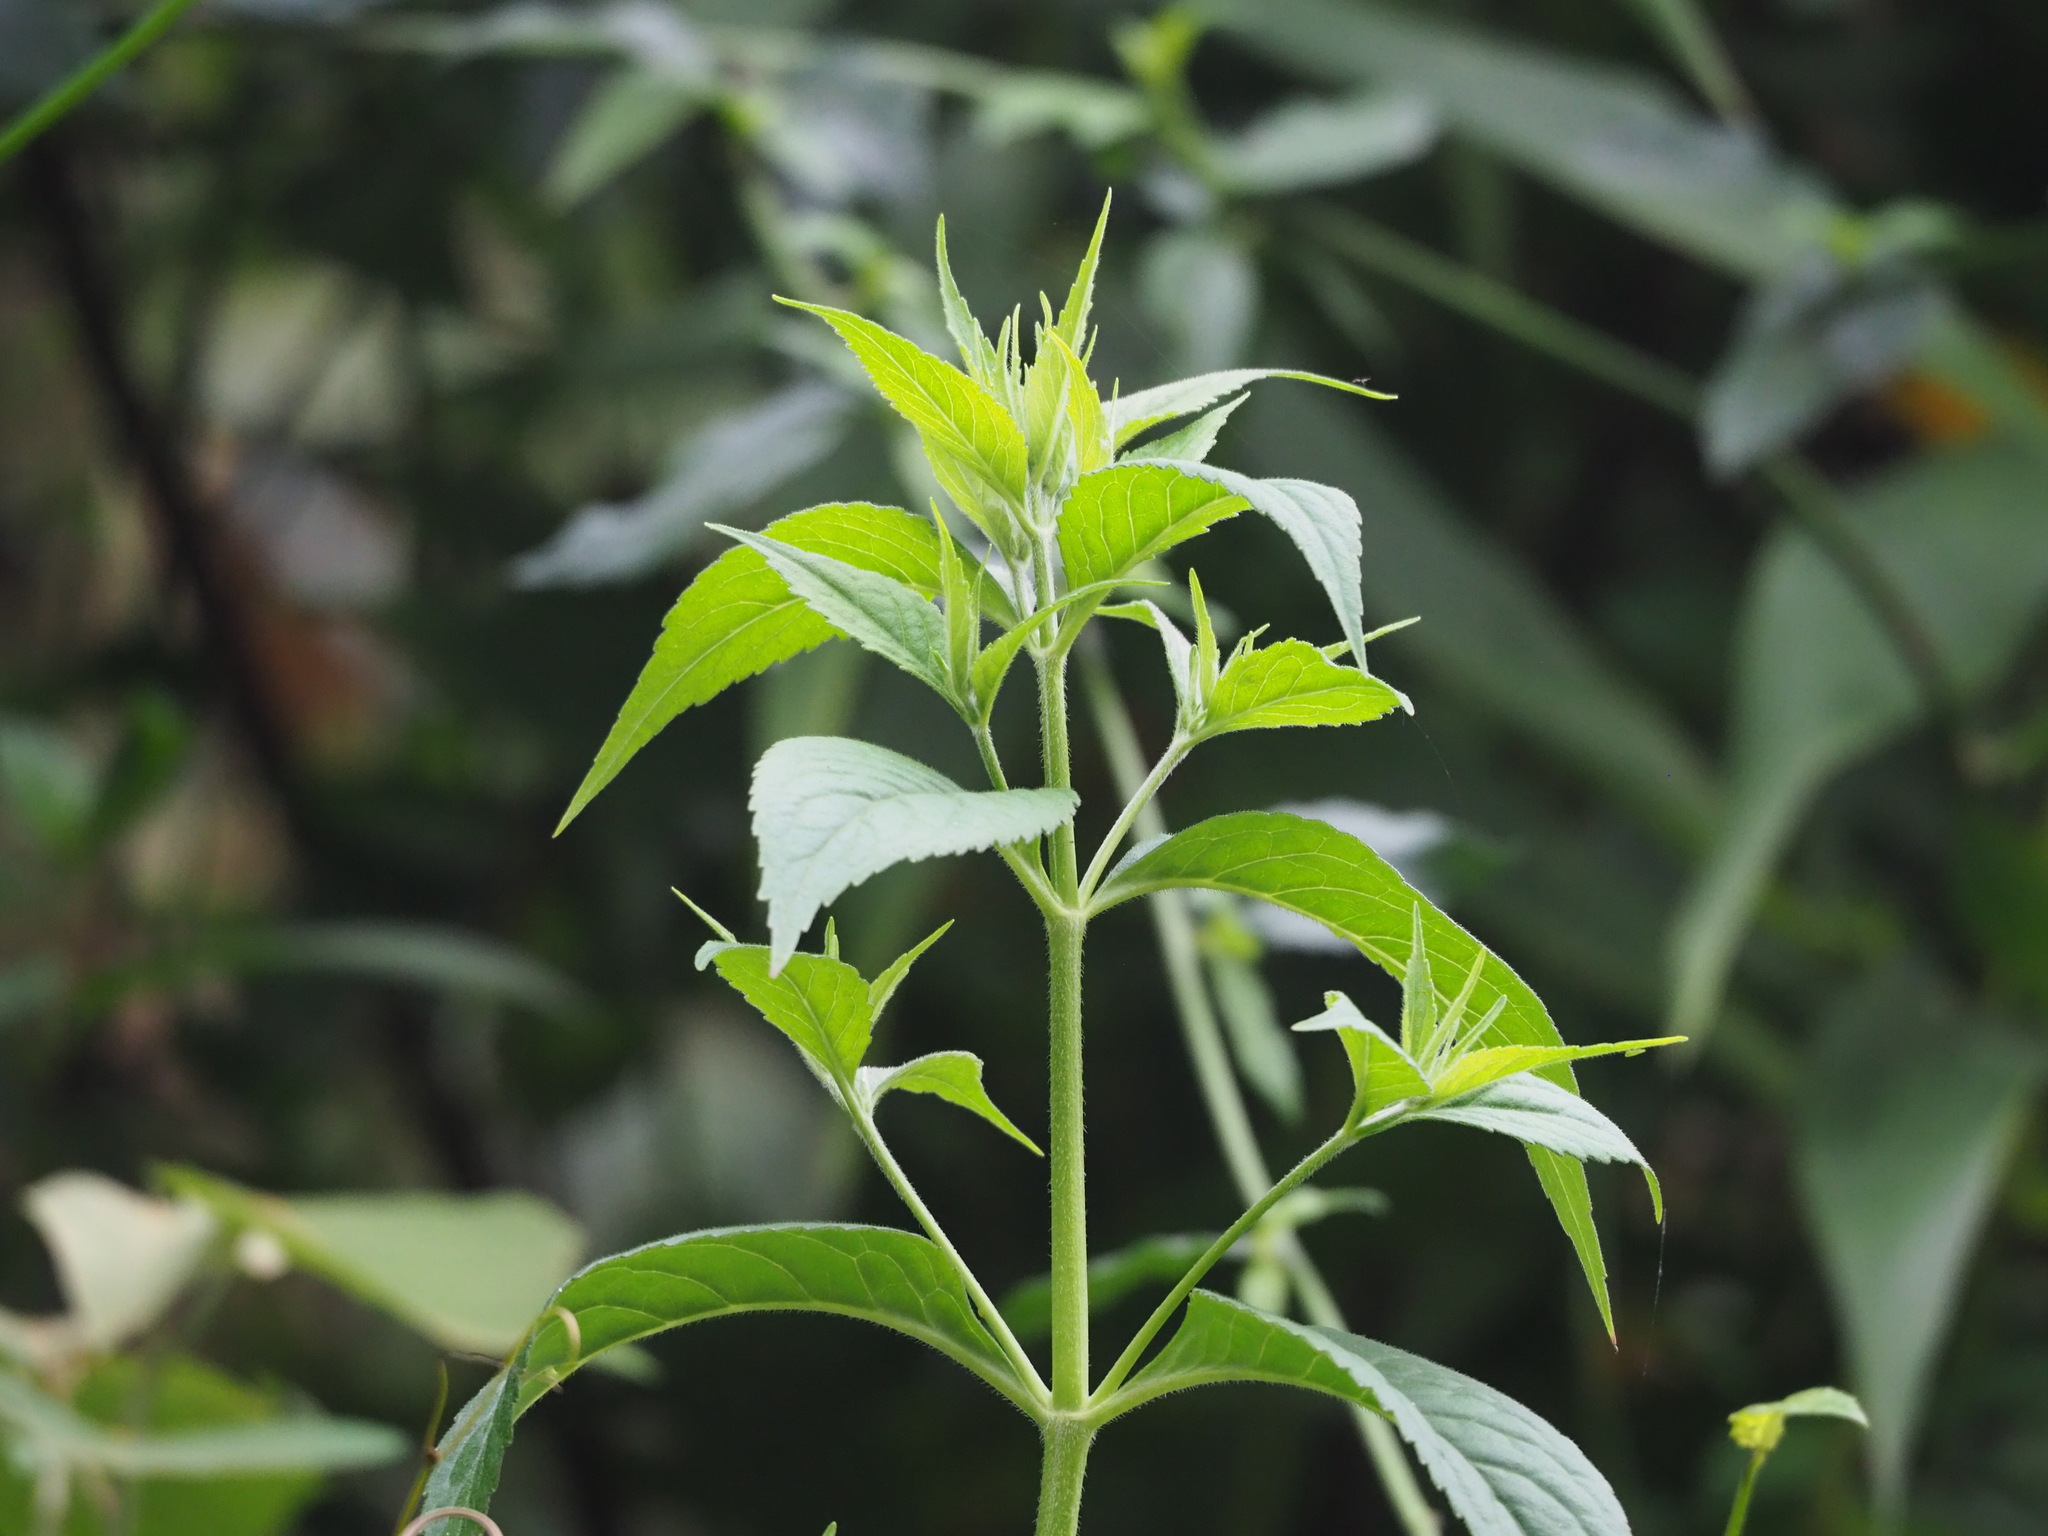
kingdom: Plantae
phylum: Tracheophyta
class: Magnoliopsida
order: Dipsacales
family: Caprifoliaceae
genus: Patrinia
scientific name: Patrinia villosa
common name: Patrinia
